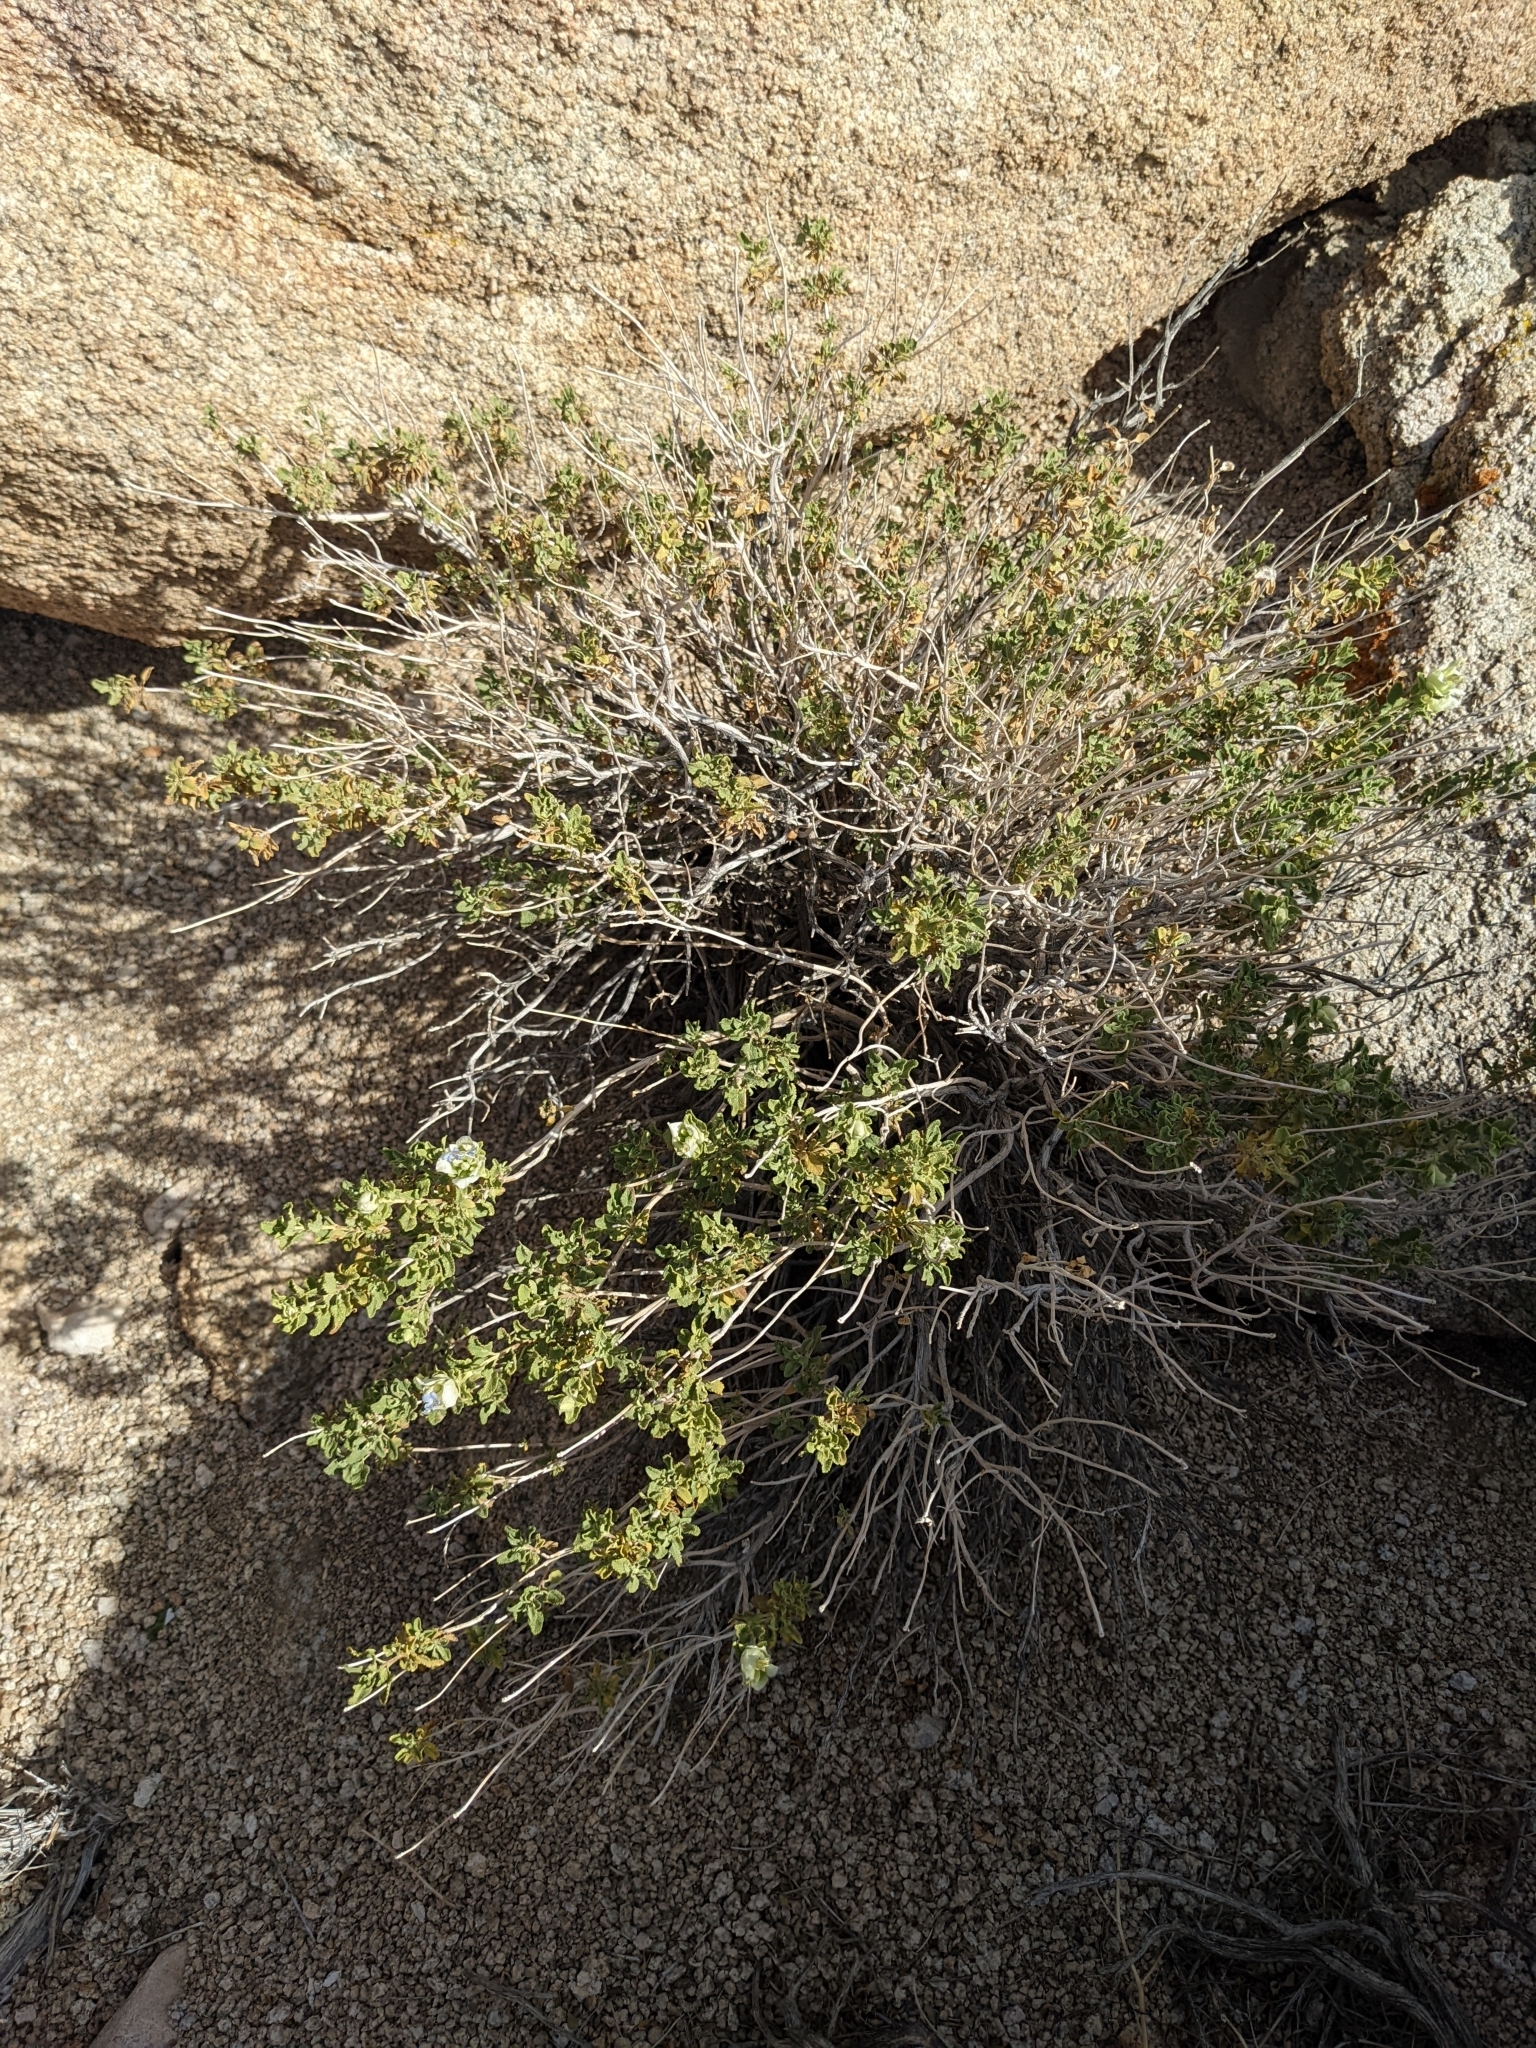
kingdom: Plantae
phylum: Tracheophyta
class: Magnoliopsida
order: Lamiales
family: Lamiaceae
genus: Salvia
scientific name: Salvia mohavensis
